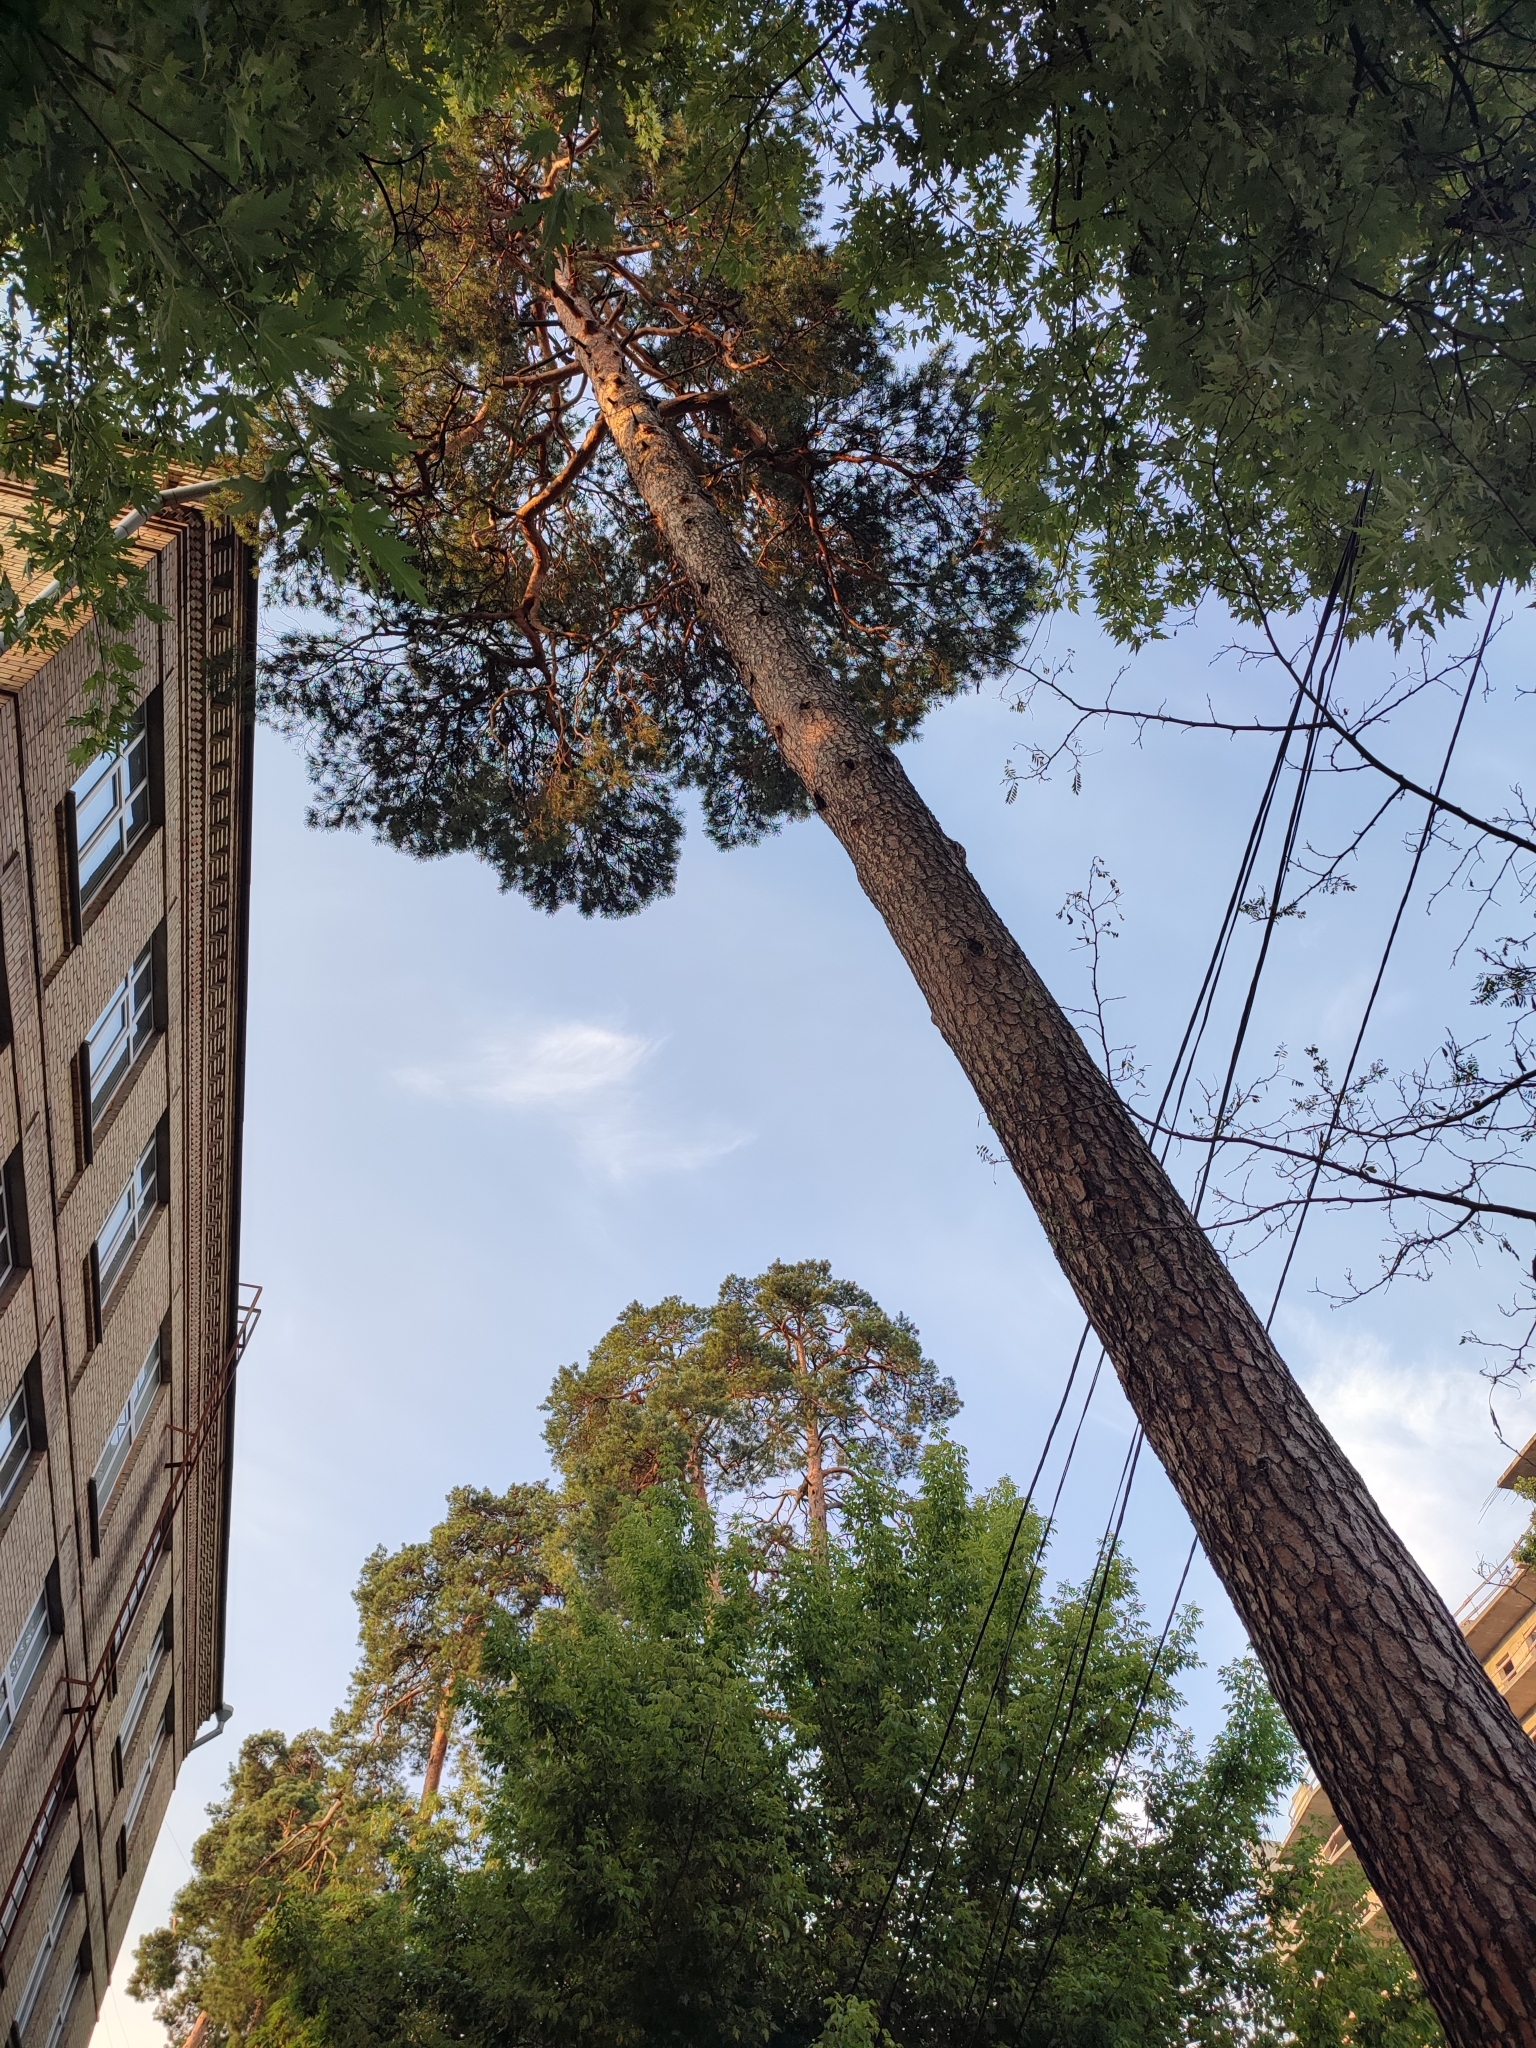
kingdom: Plantae
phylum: Tracheophyta
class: Pinopsida
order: Pinales
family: Pinaceae
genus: Pinus
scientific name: Pinus sylvestris
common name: Scots pine
